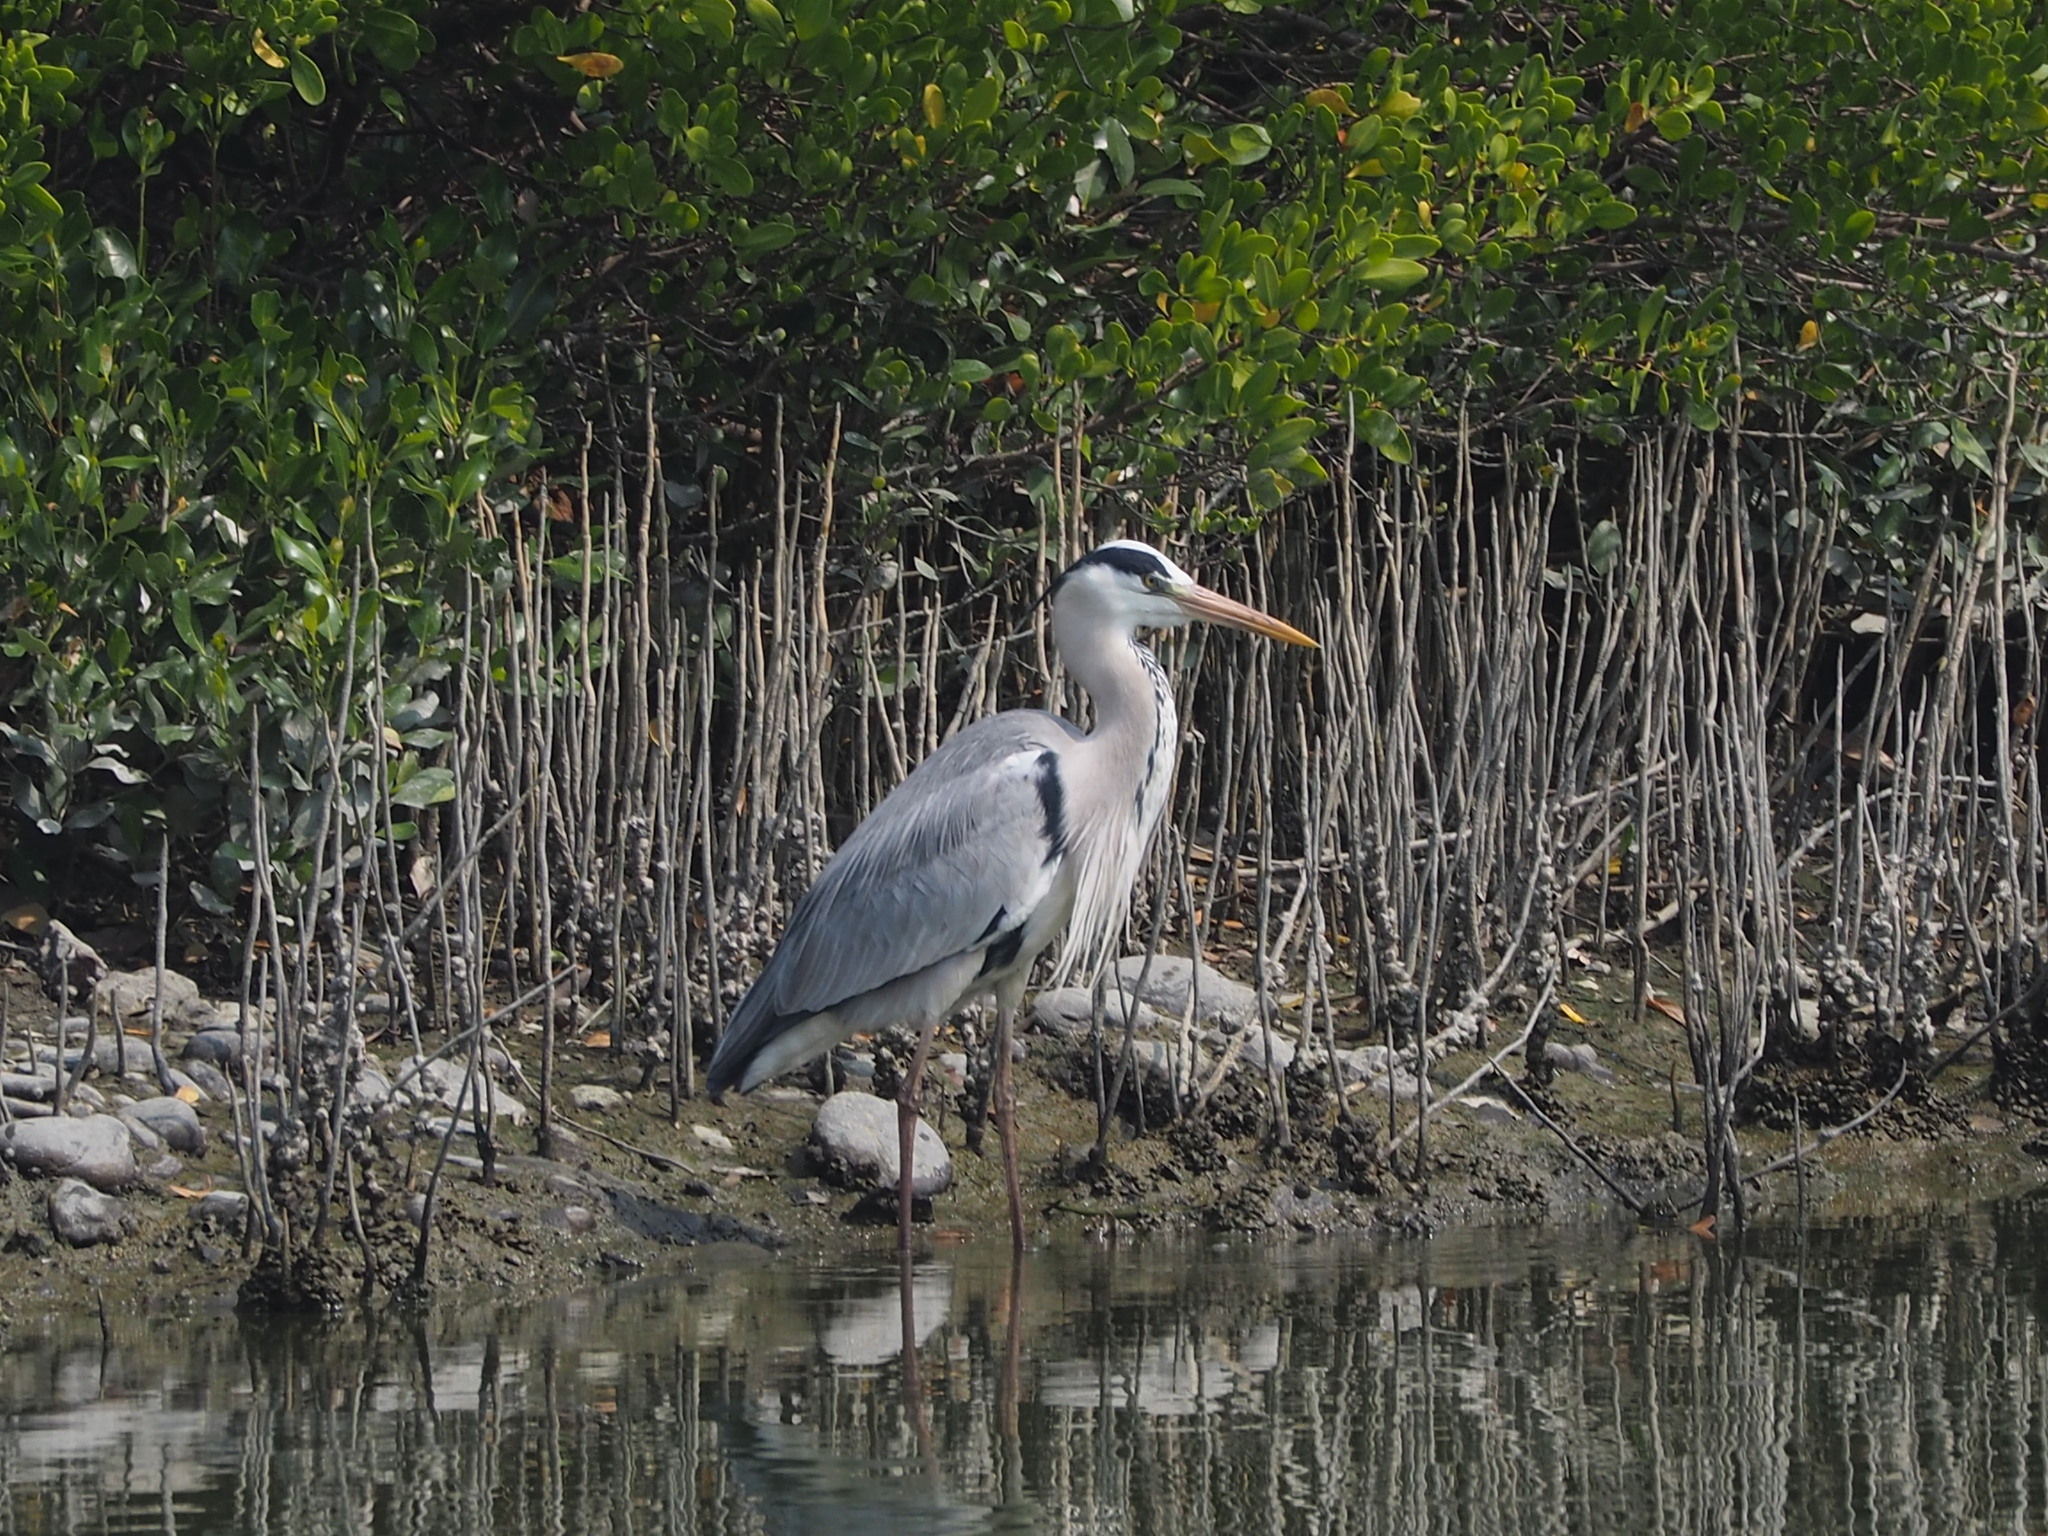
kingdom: Animalia
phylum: Chordata
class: Aves
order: Pelecaniformes
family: Ardeidae
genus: Ardea
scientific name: Ardea cinerea
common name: Grey heron
